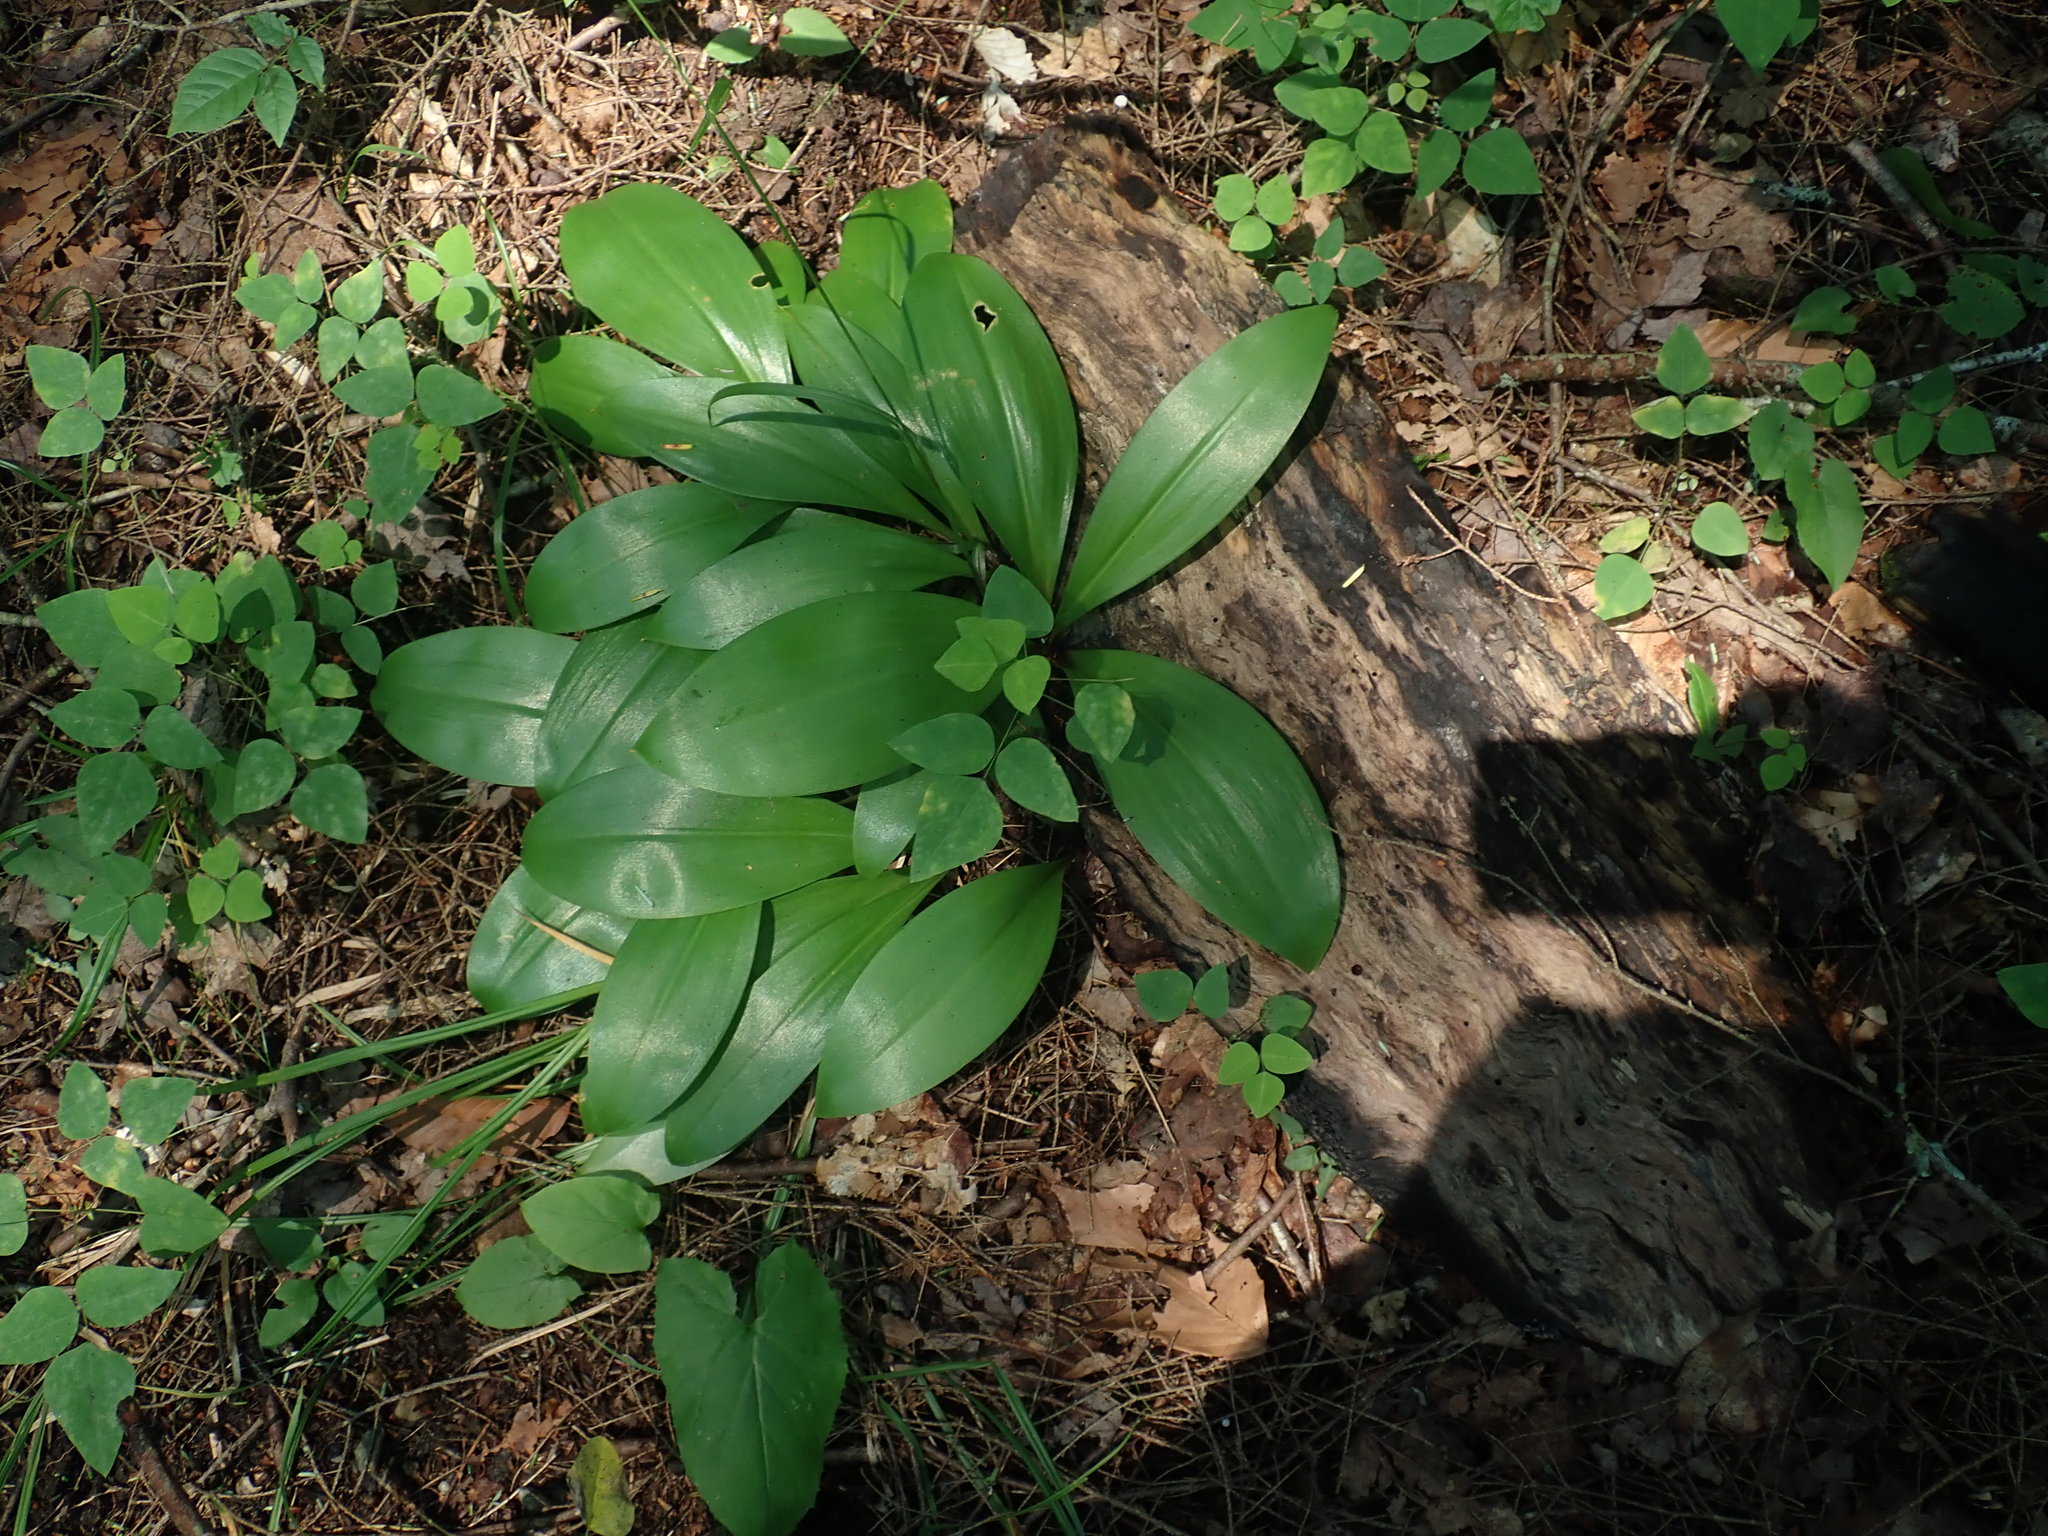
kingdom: Plantae
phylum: Tracheophyta
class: Liliopsida
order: Liliales
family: Liliaceae
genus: Clintonia
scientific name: Clintonia borealis
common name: Yellow clintonia
